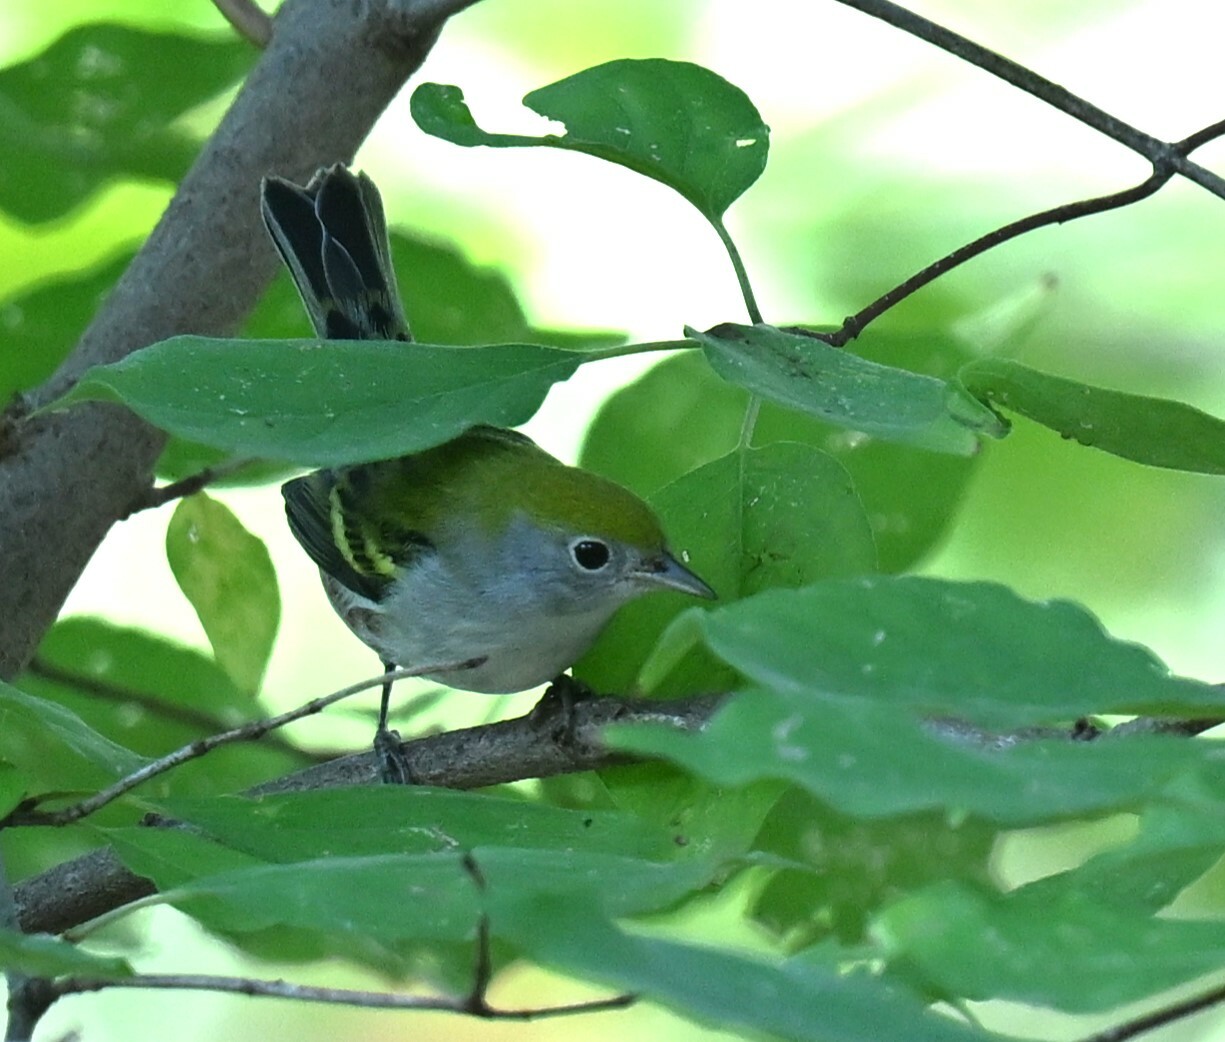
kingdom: Animalia
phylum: Chordata
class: Aves
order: Passeriformes
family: Parulidae
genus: Setophaga
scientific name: Setophaga pensylvanica
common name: Chestnut-sided warbler
